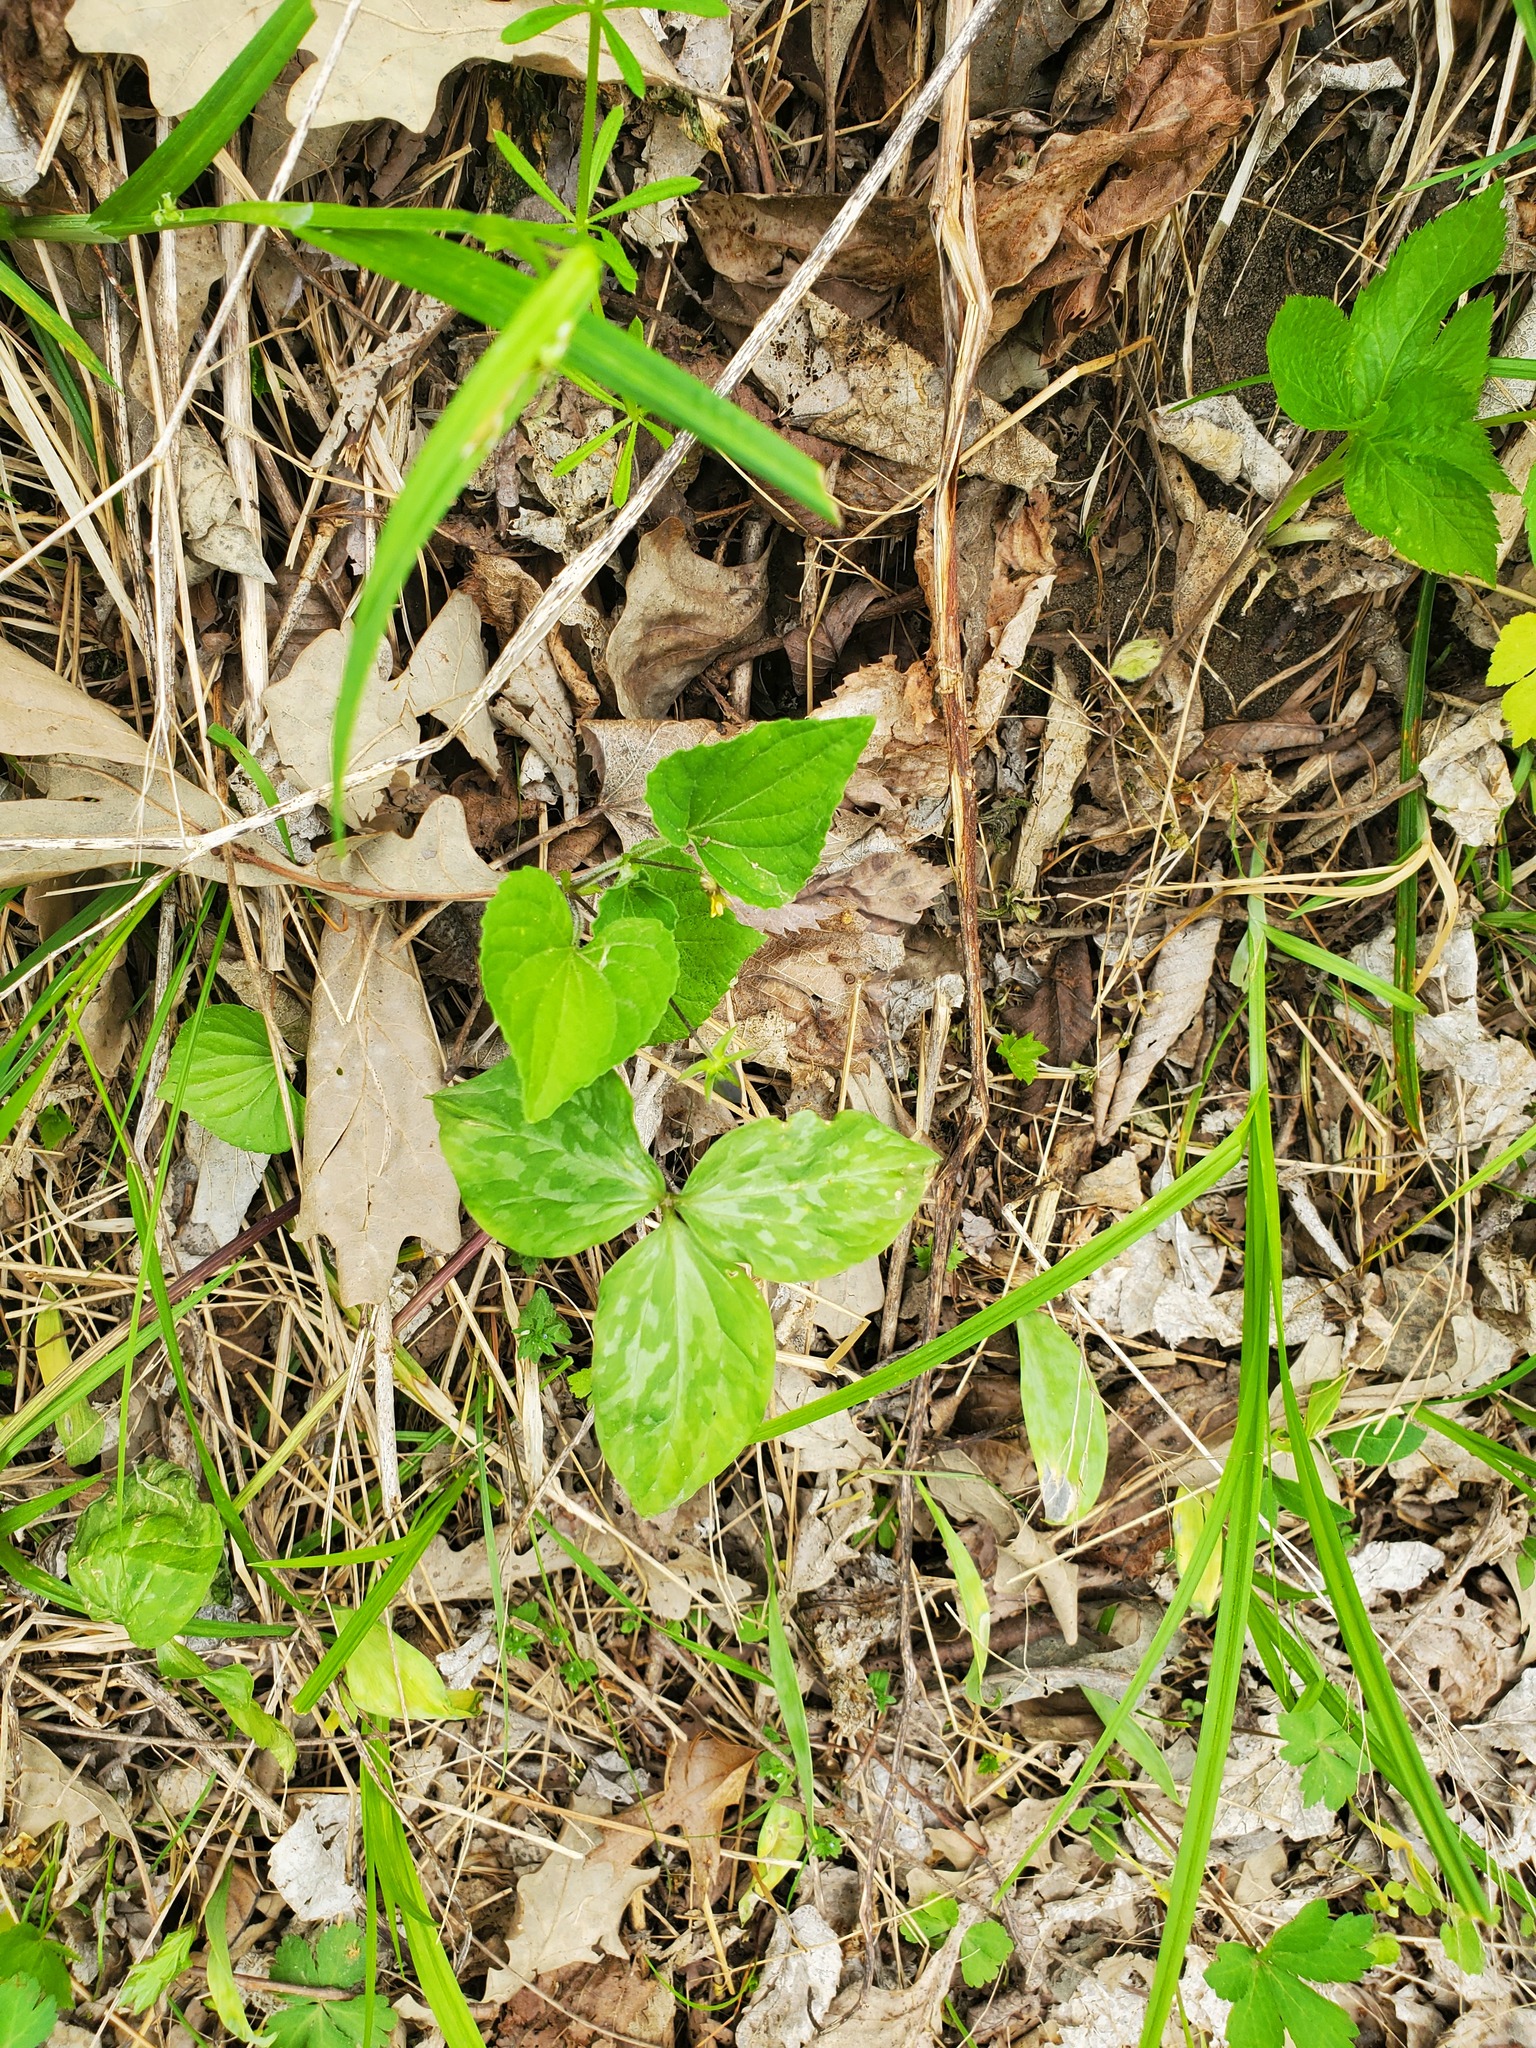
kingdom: Plantae
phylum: Tracheophyta
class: Liliopsida
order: Liliales
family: Melanthiaceae
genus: Trillium
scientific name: Trillium recurvatum
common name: Bloody butcher
